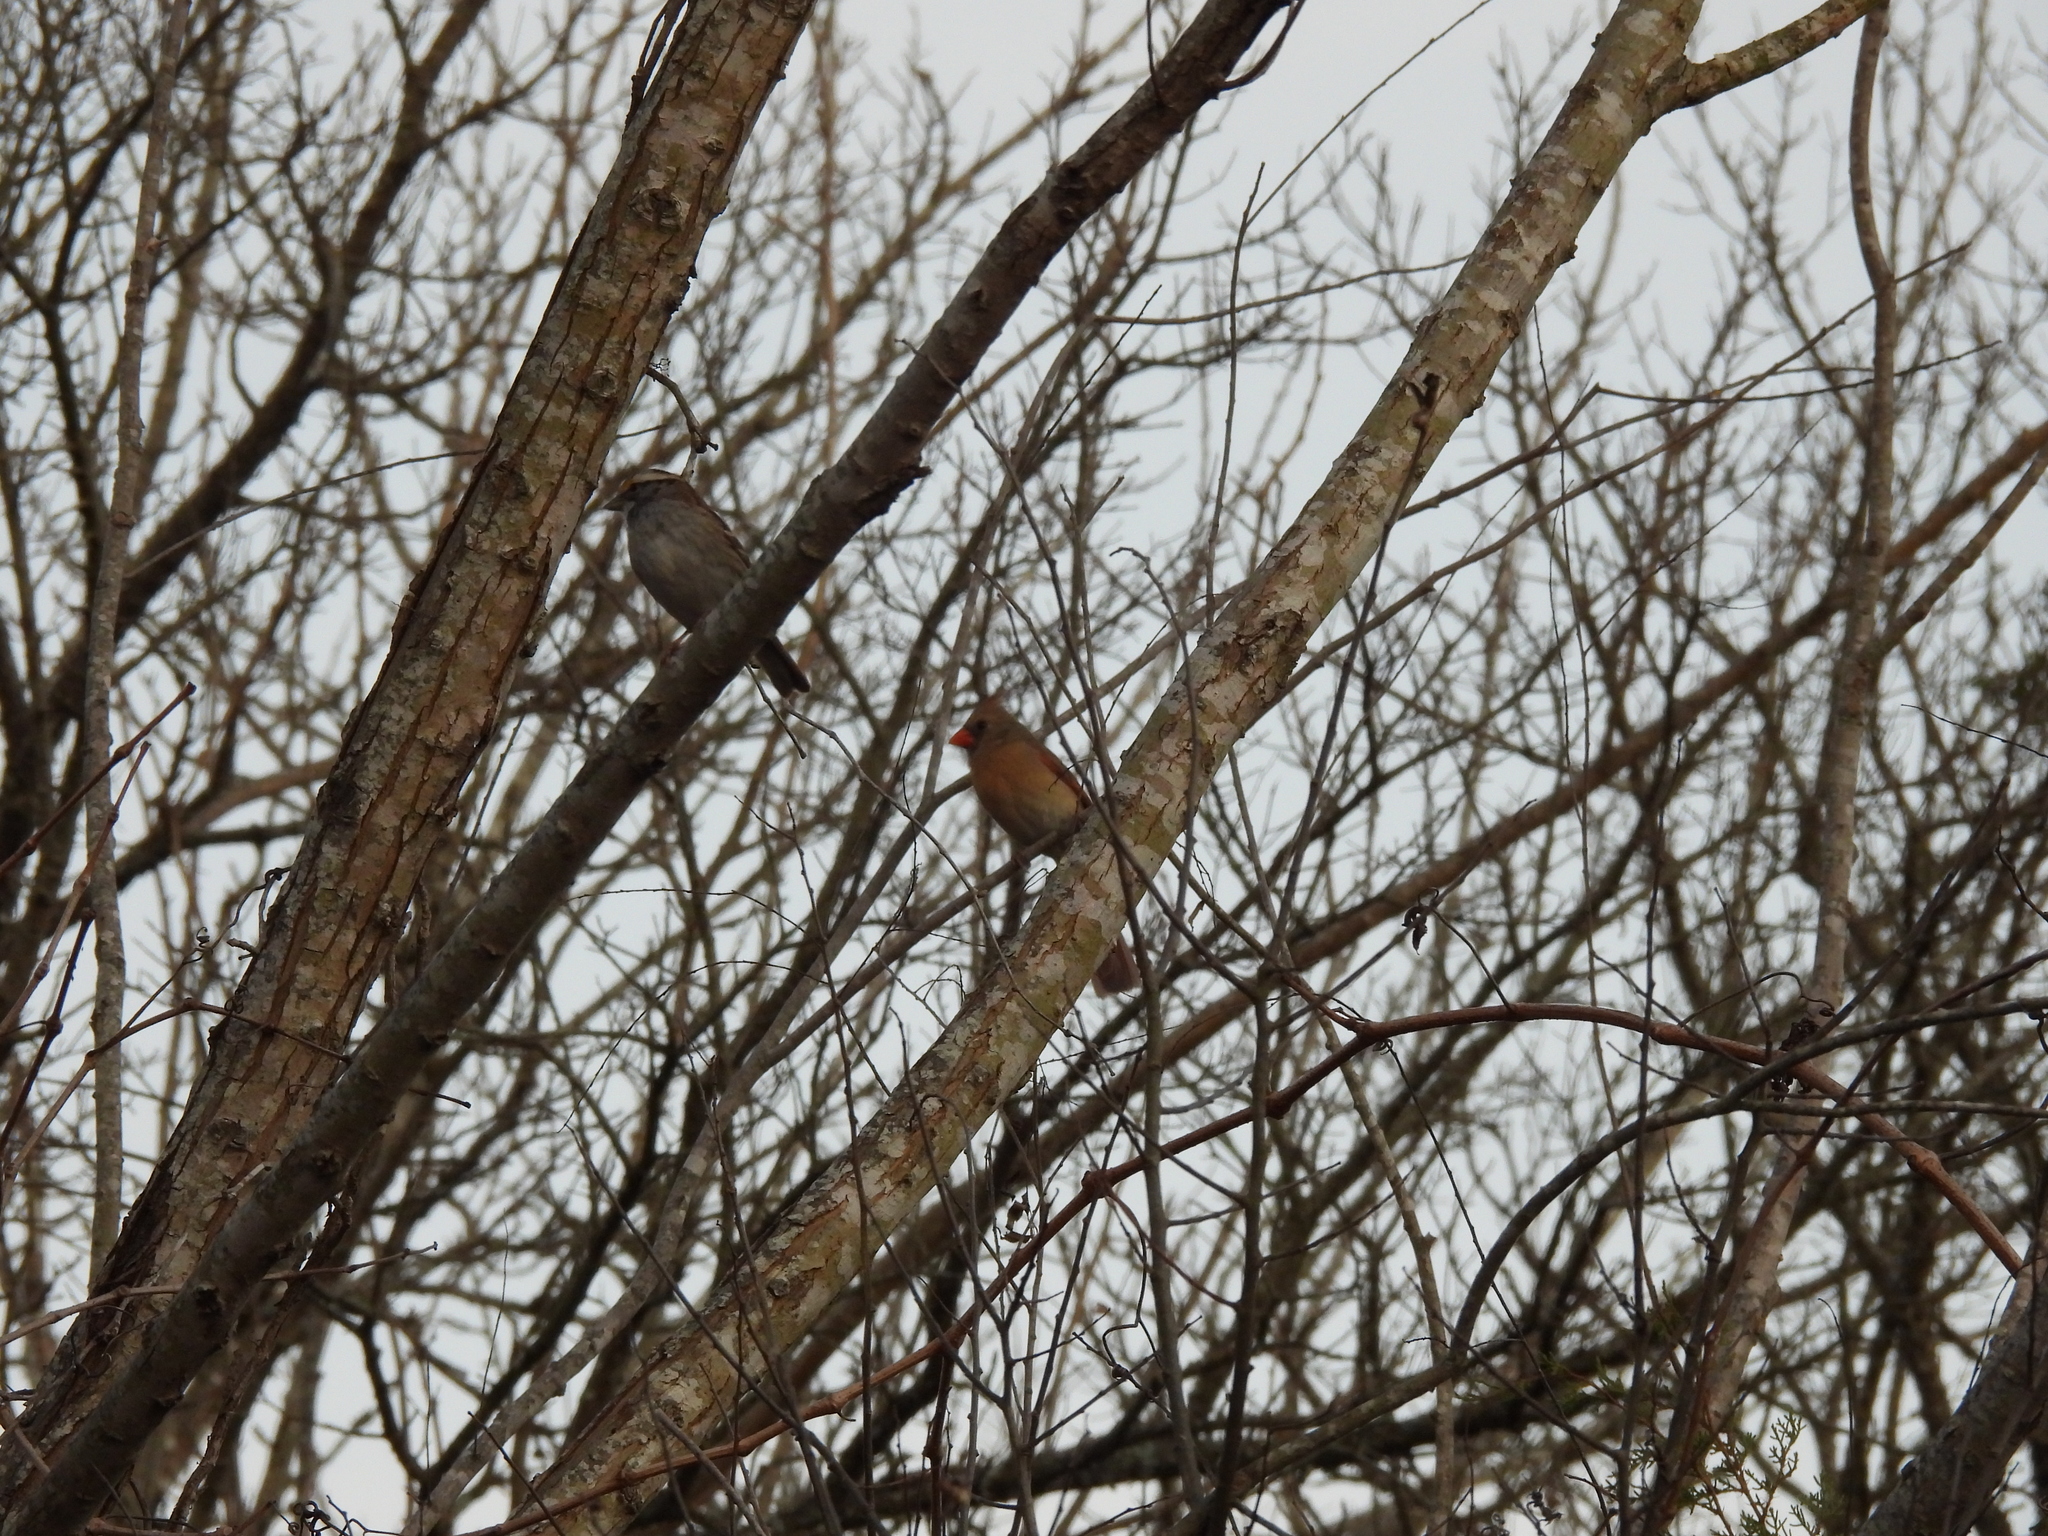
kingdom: Animalia
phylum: Chordata
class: Aves
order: Passeriformes
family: Cardinalidae
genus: Cardinalis
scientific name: Cardinalis cardinalis
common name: Northern cardinal
